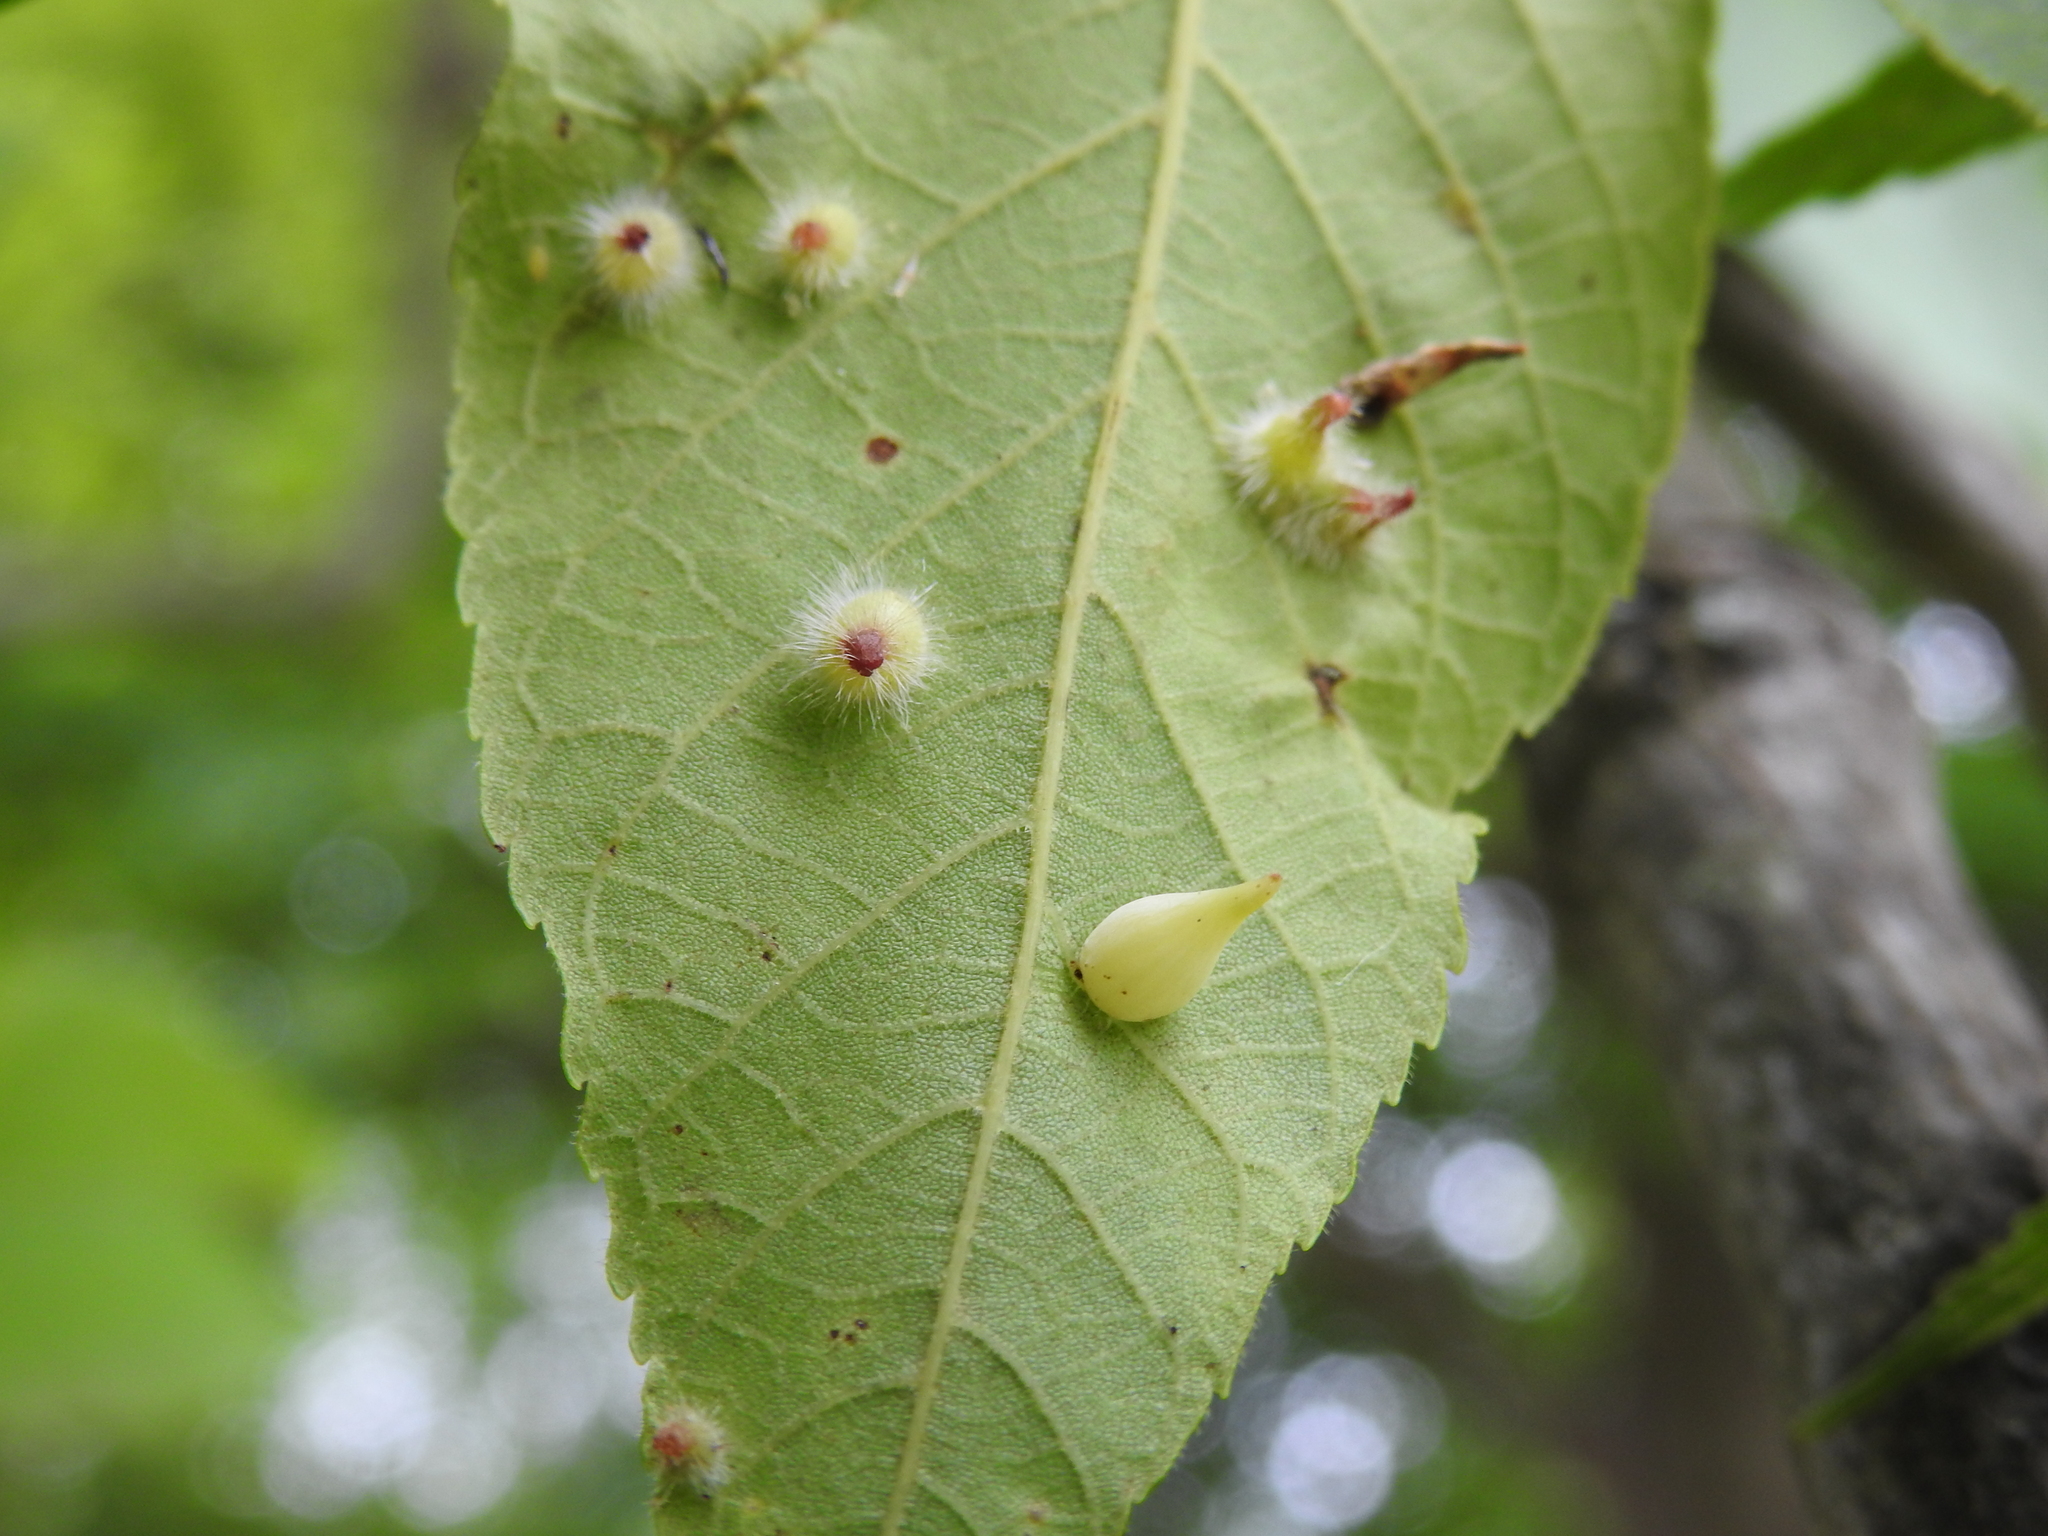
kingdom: Animalia
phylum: Arthropoda
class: Insecta
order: Diptera
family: Cecidomyiidae
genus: Caryomyia
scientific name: Caryomyia caryaecola
